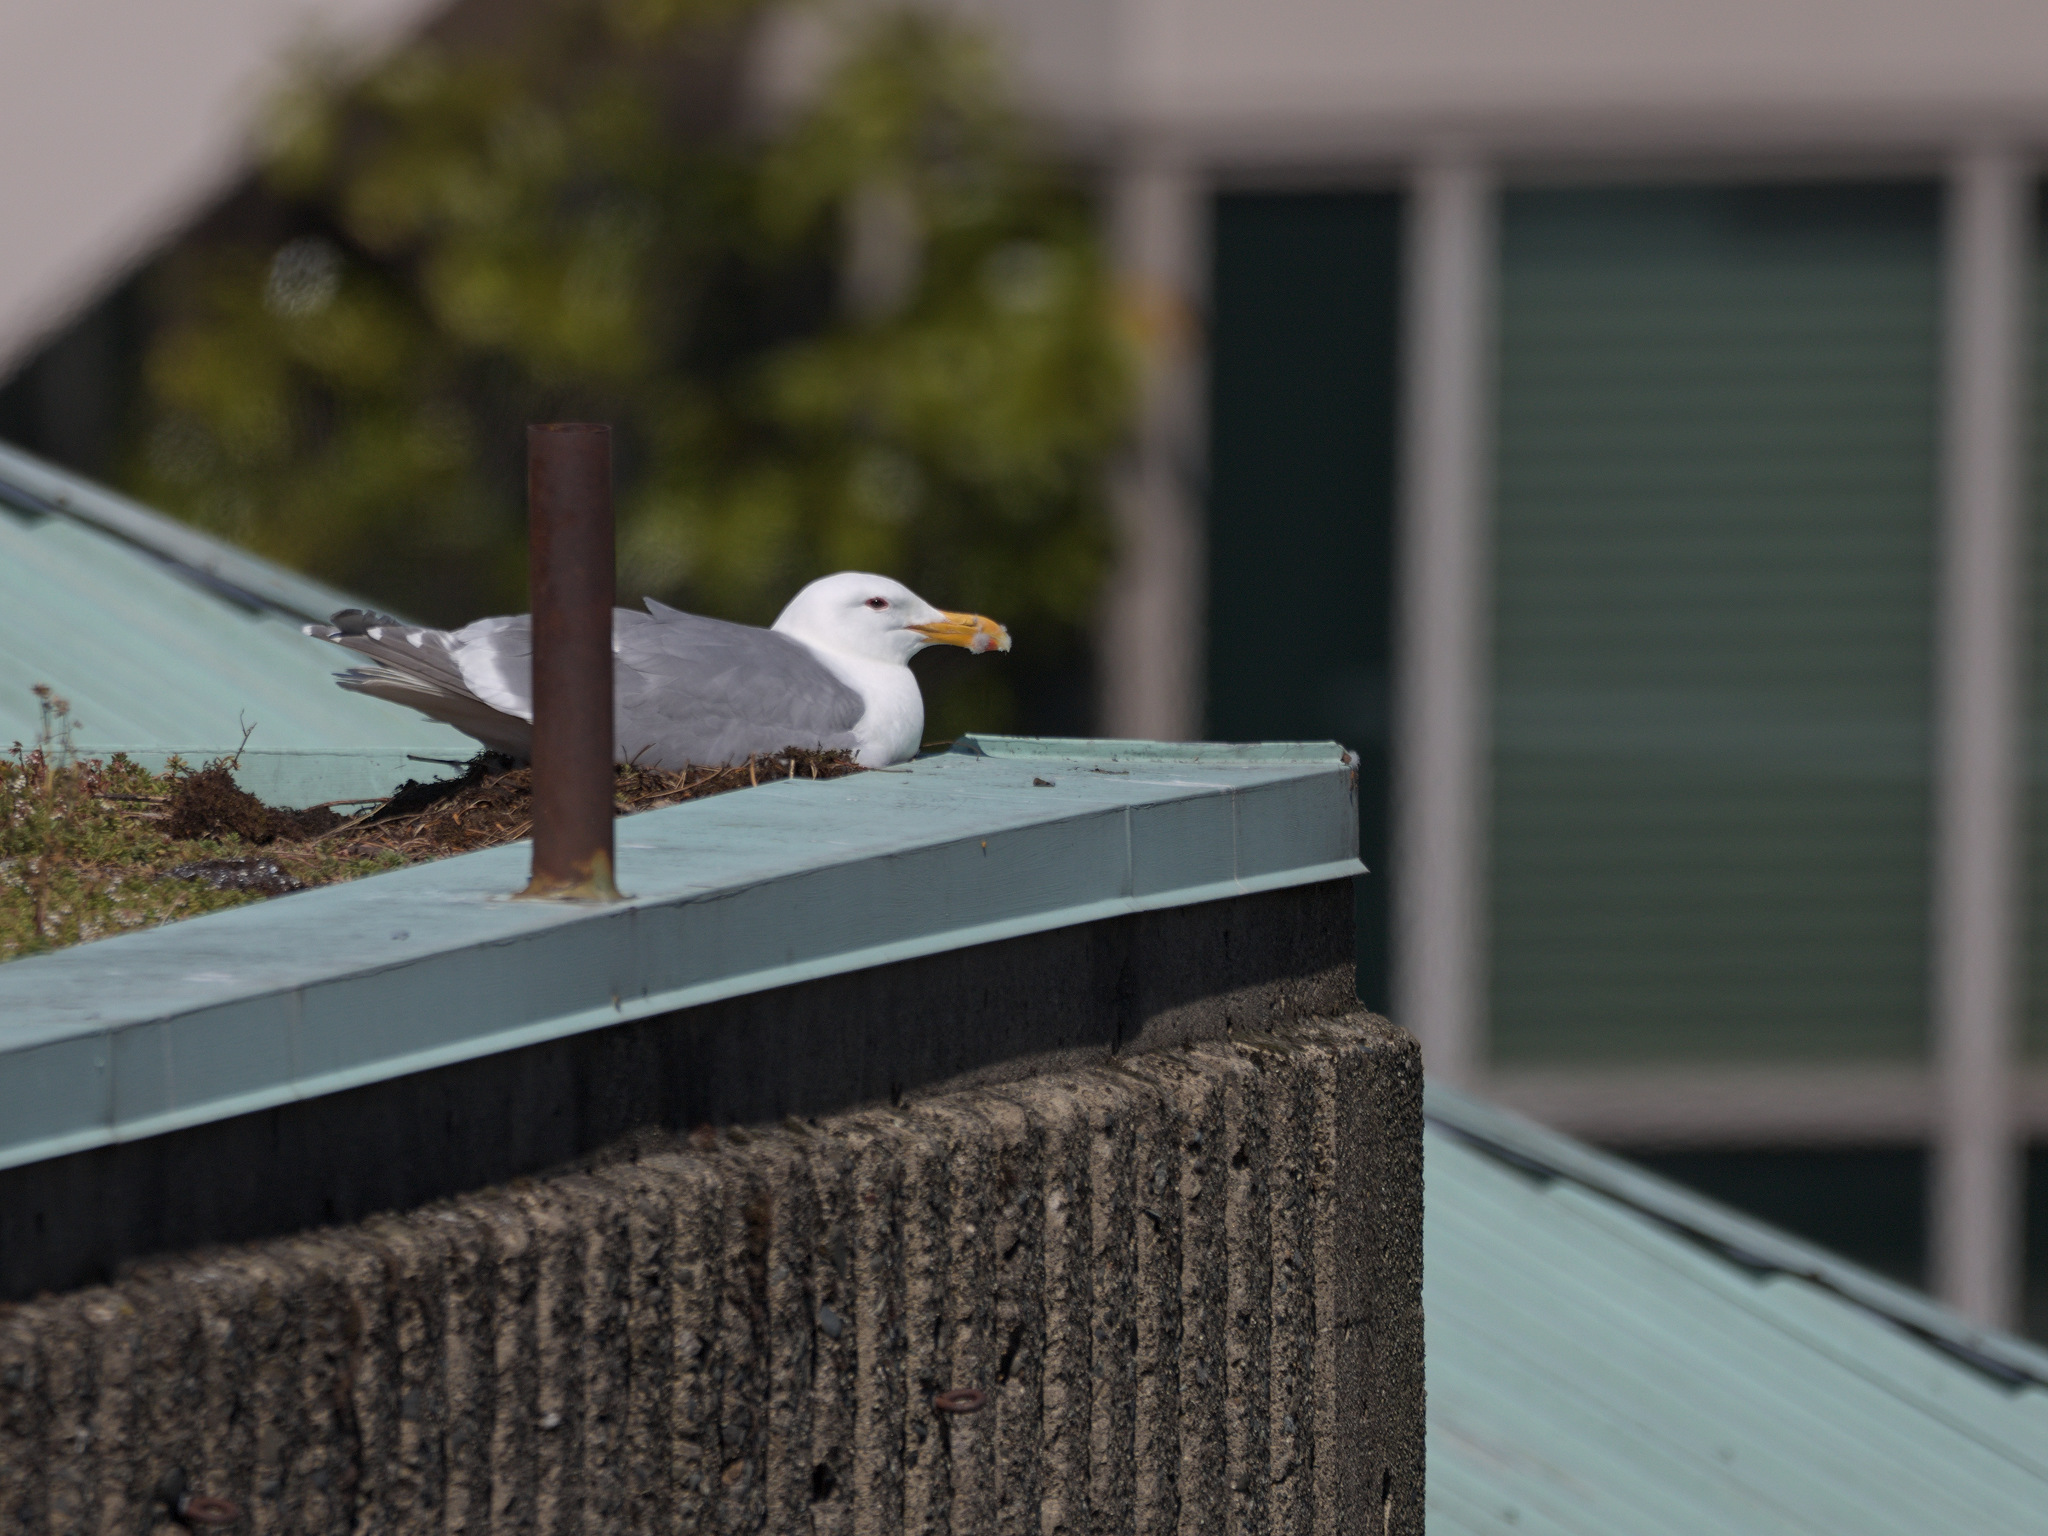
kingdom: Animalia
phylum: Chordata
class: Aves
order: Charadriiformes
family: Laridae
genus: Larus
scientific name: Larus
